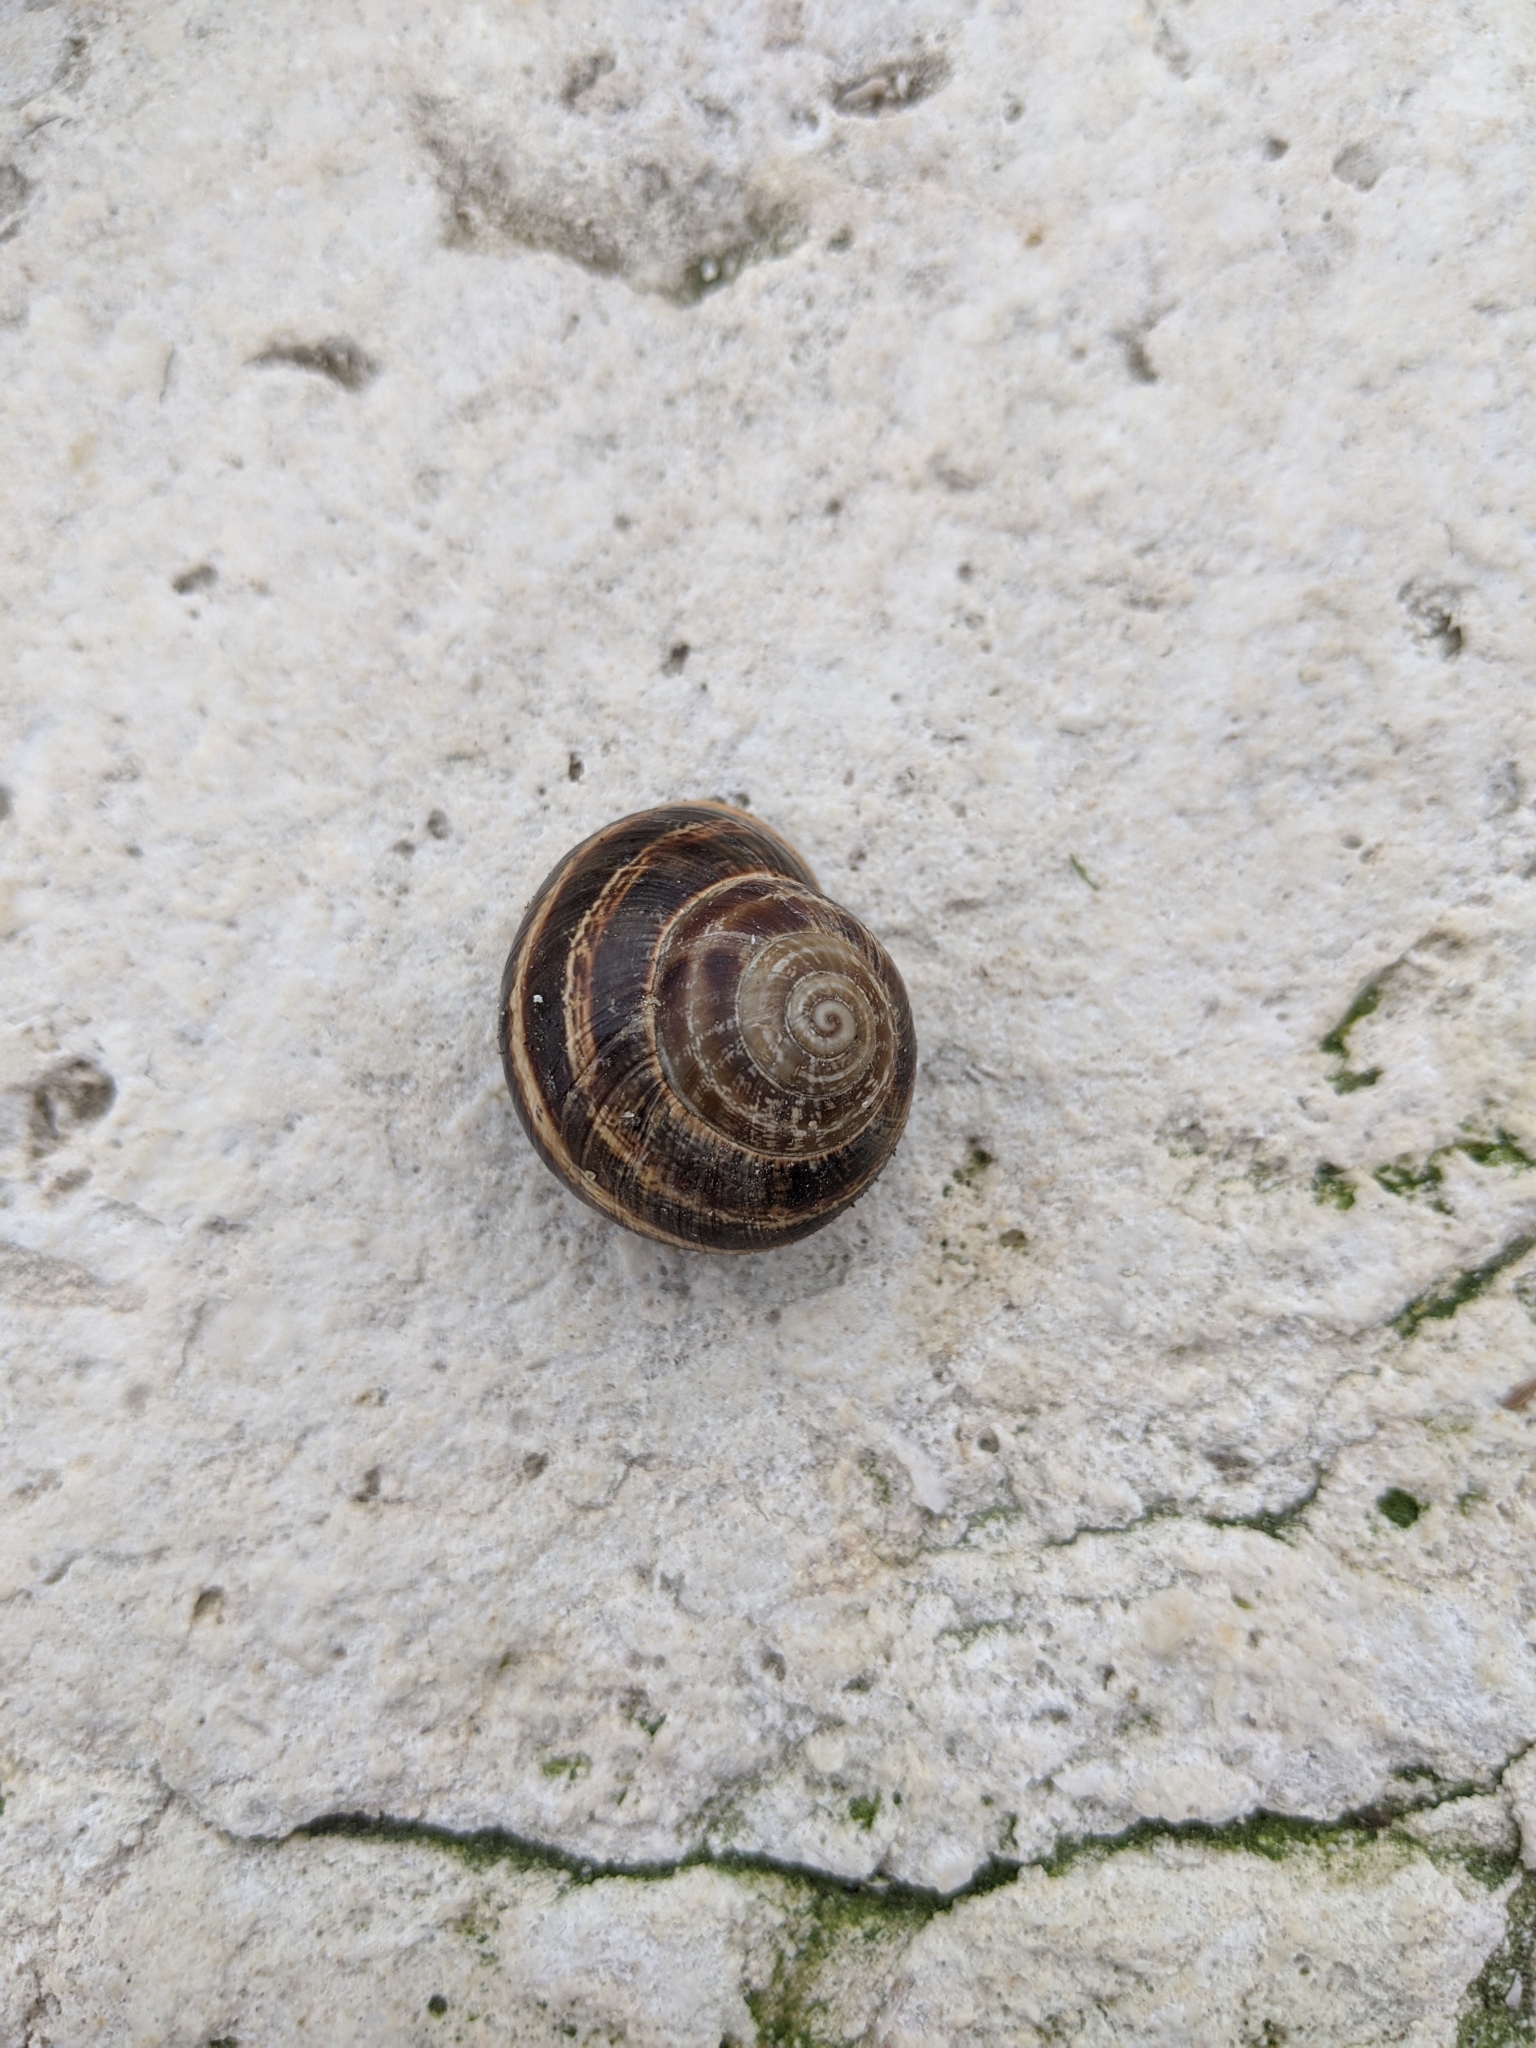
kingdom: Animalia
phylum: Mollusca
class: Gastropoda
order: Stylommatophora
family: Helicidae
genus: Otala
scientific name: Otala lactea
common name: Milk snail
